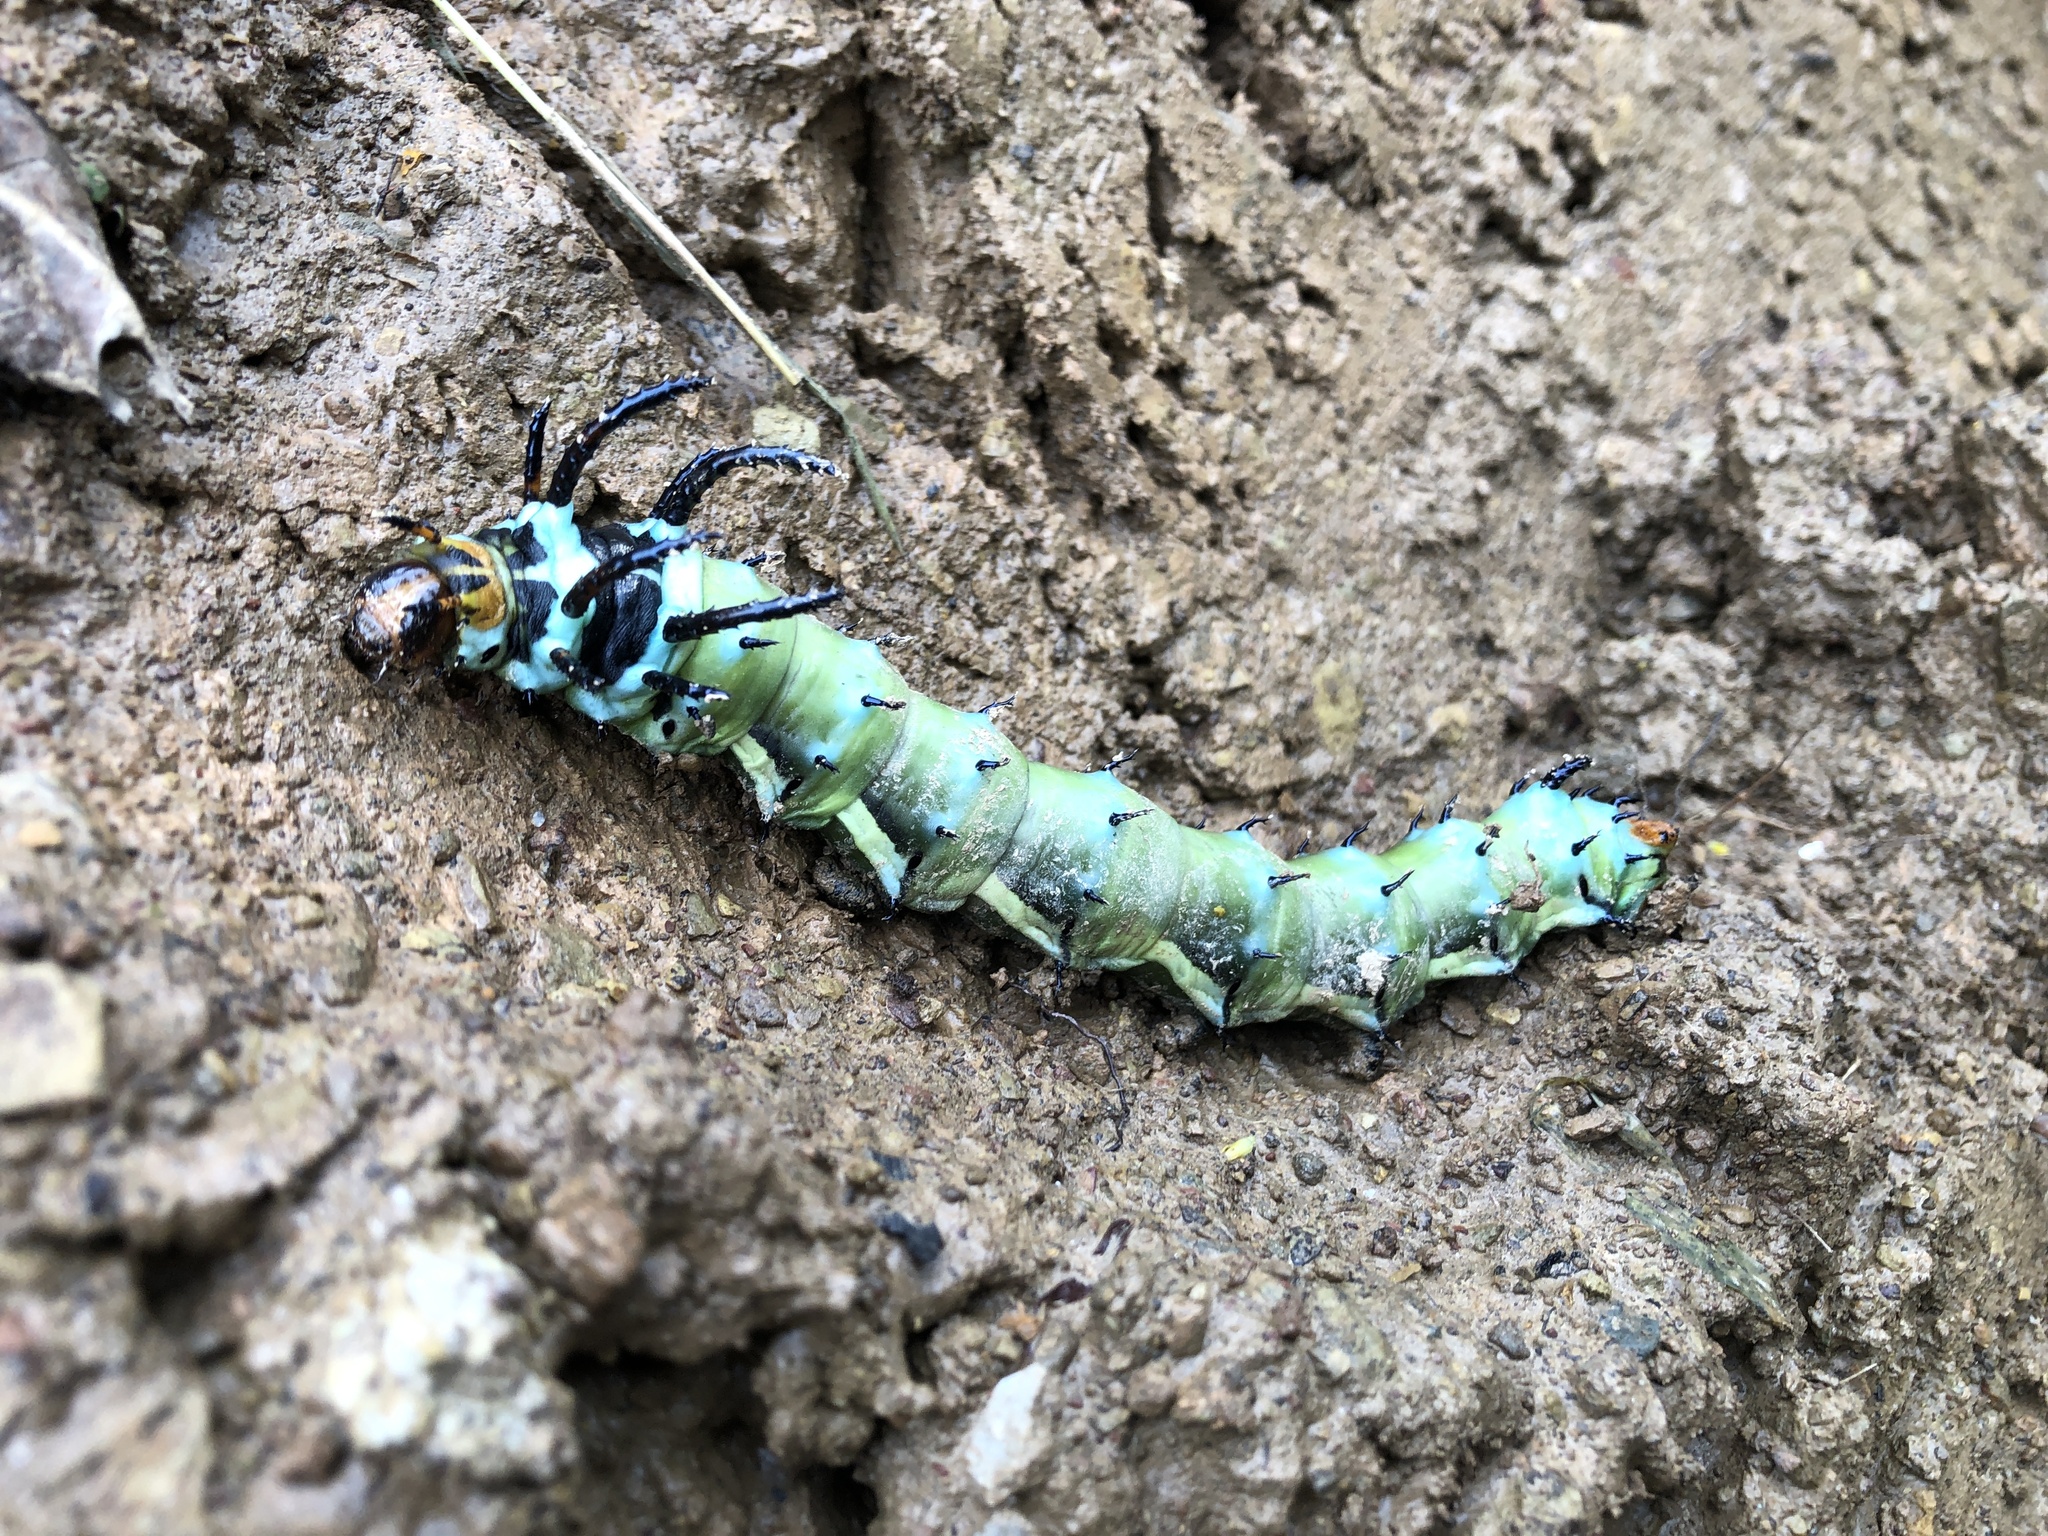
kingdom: Animalia
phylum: Arthropoda
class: Insecta
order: Lepidoptera
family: Saturniidae
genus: Citheronia
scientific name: Citheronia regalis
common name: Hickory horned devil
